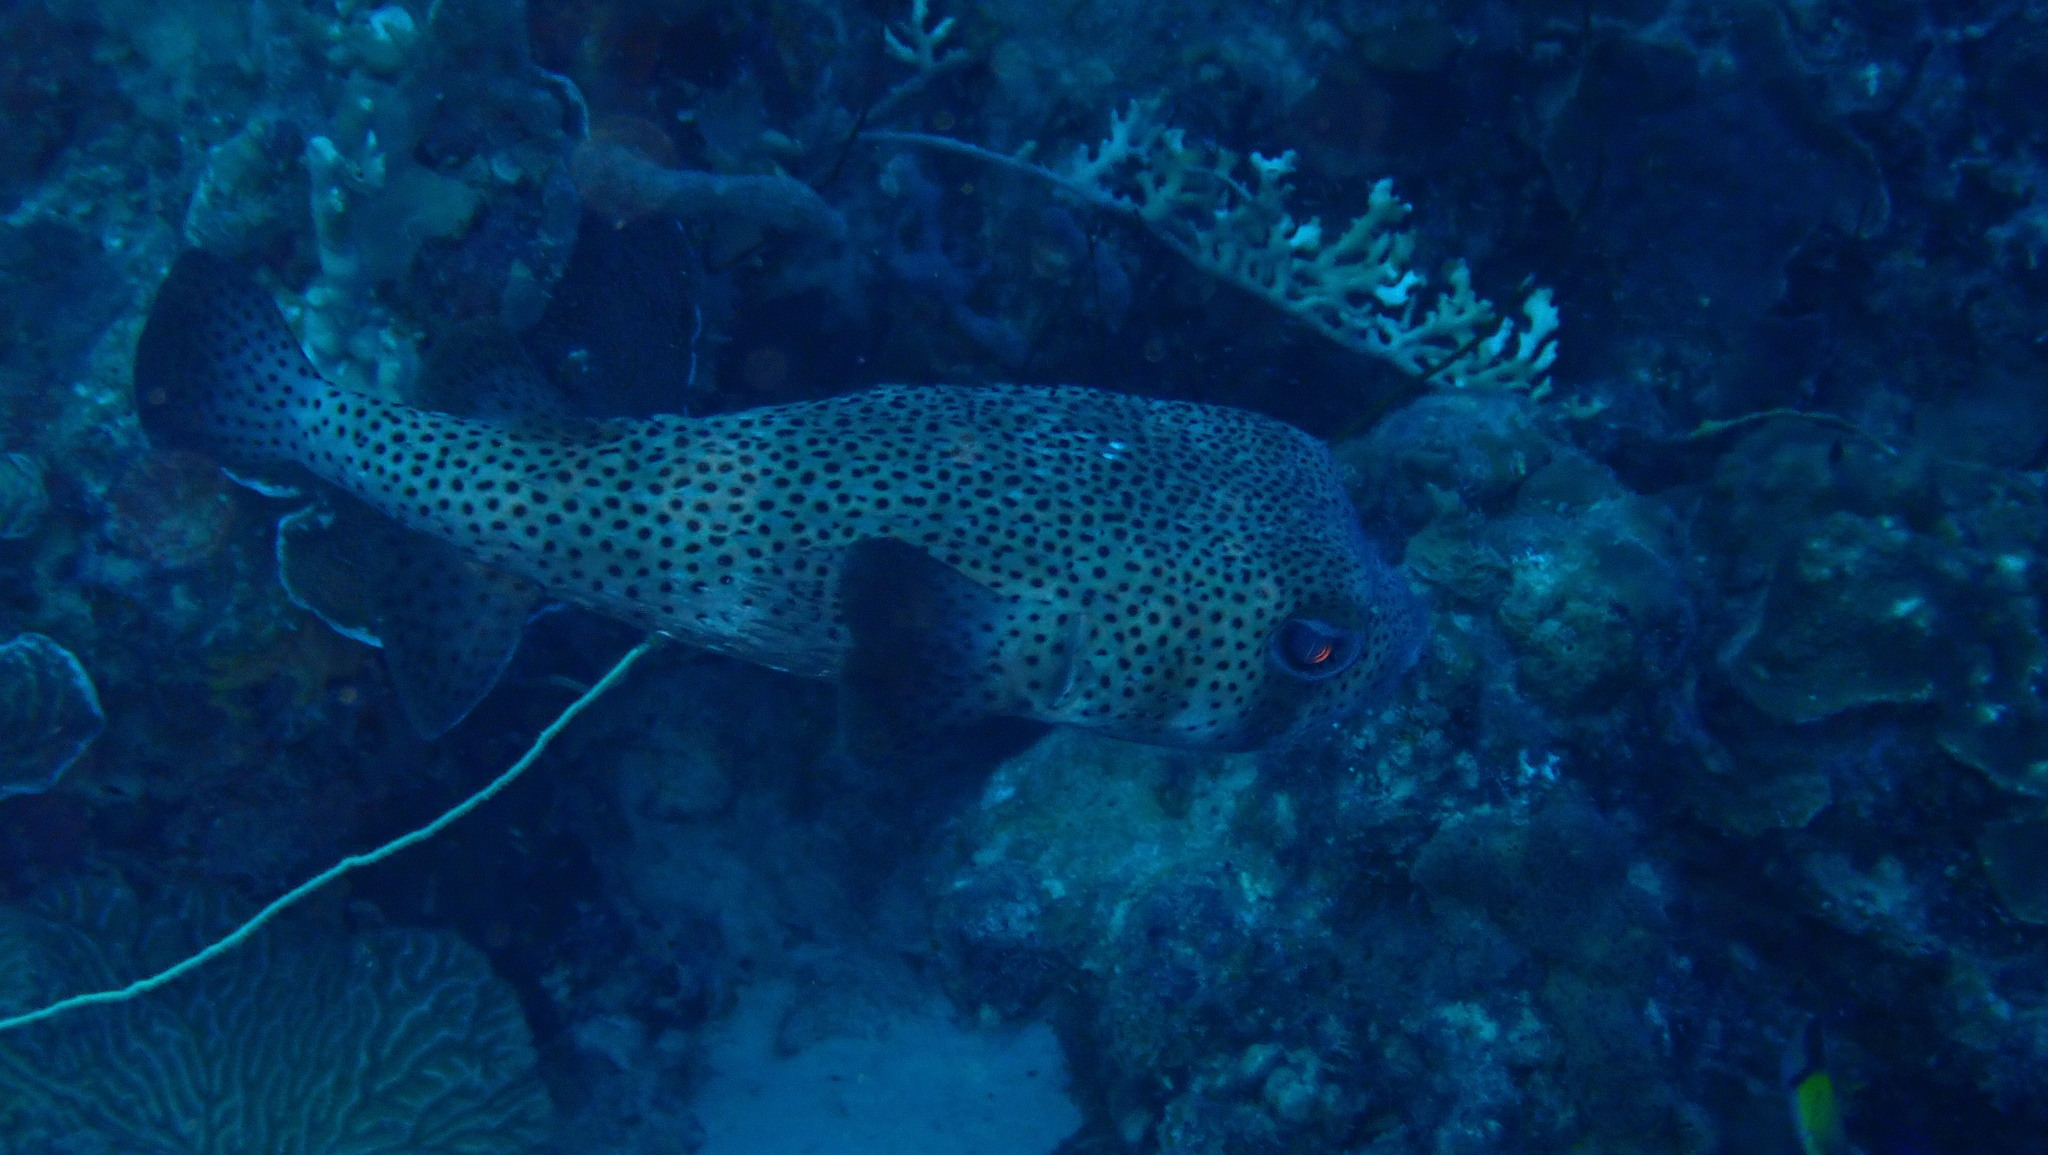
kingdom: Animalia
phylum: Chordata
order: Tetraodontiformes
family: Diodontidae
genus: Diodon
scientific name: Diodon hystrix
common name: Giant porcupinefish
